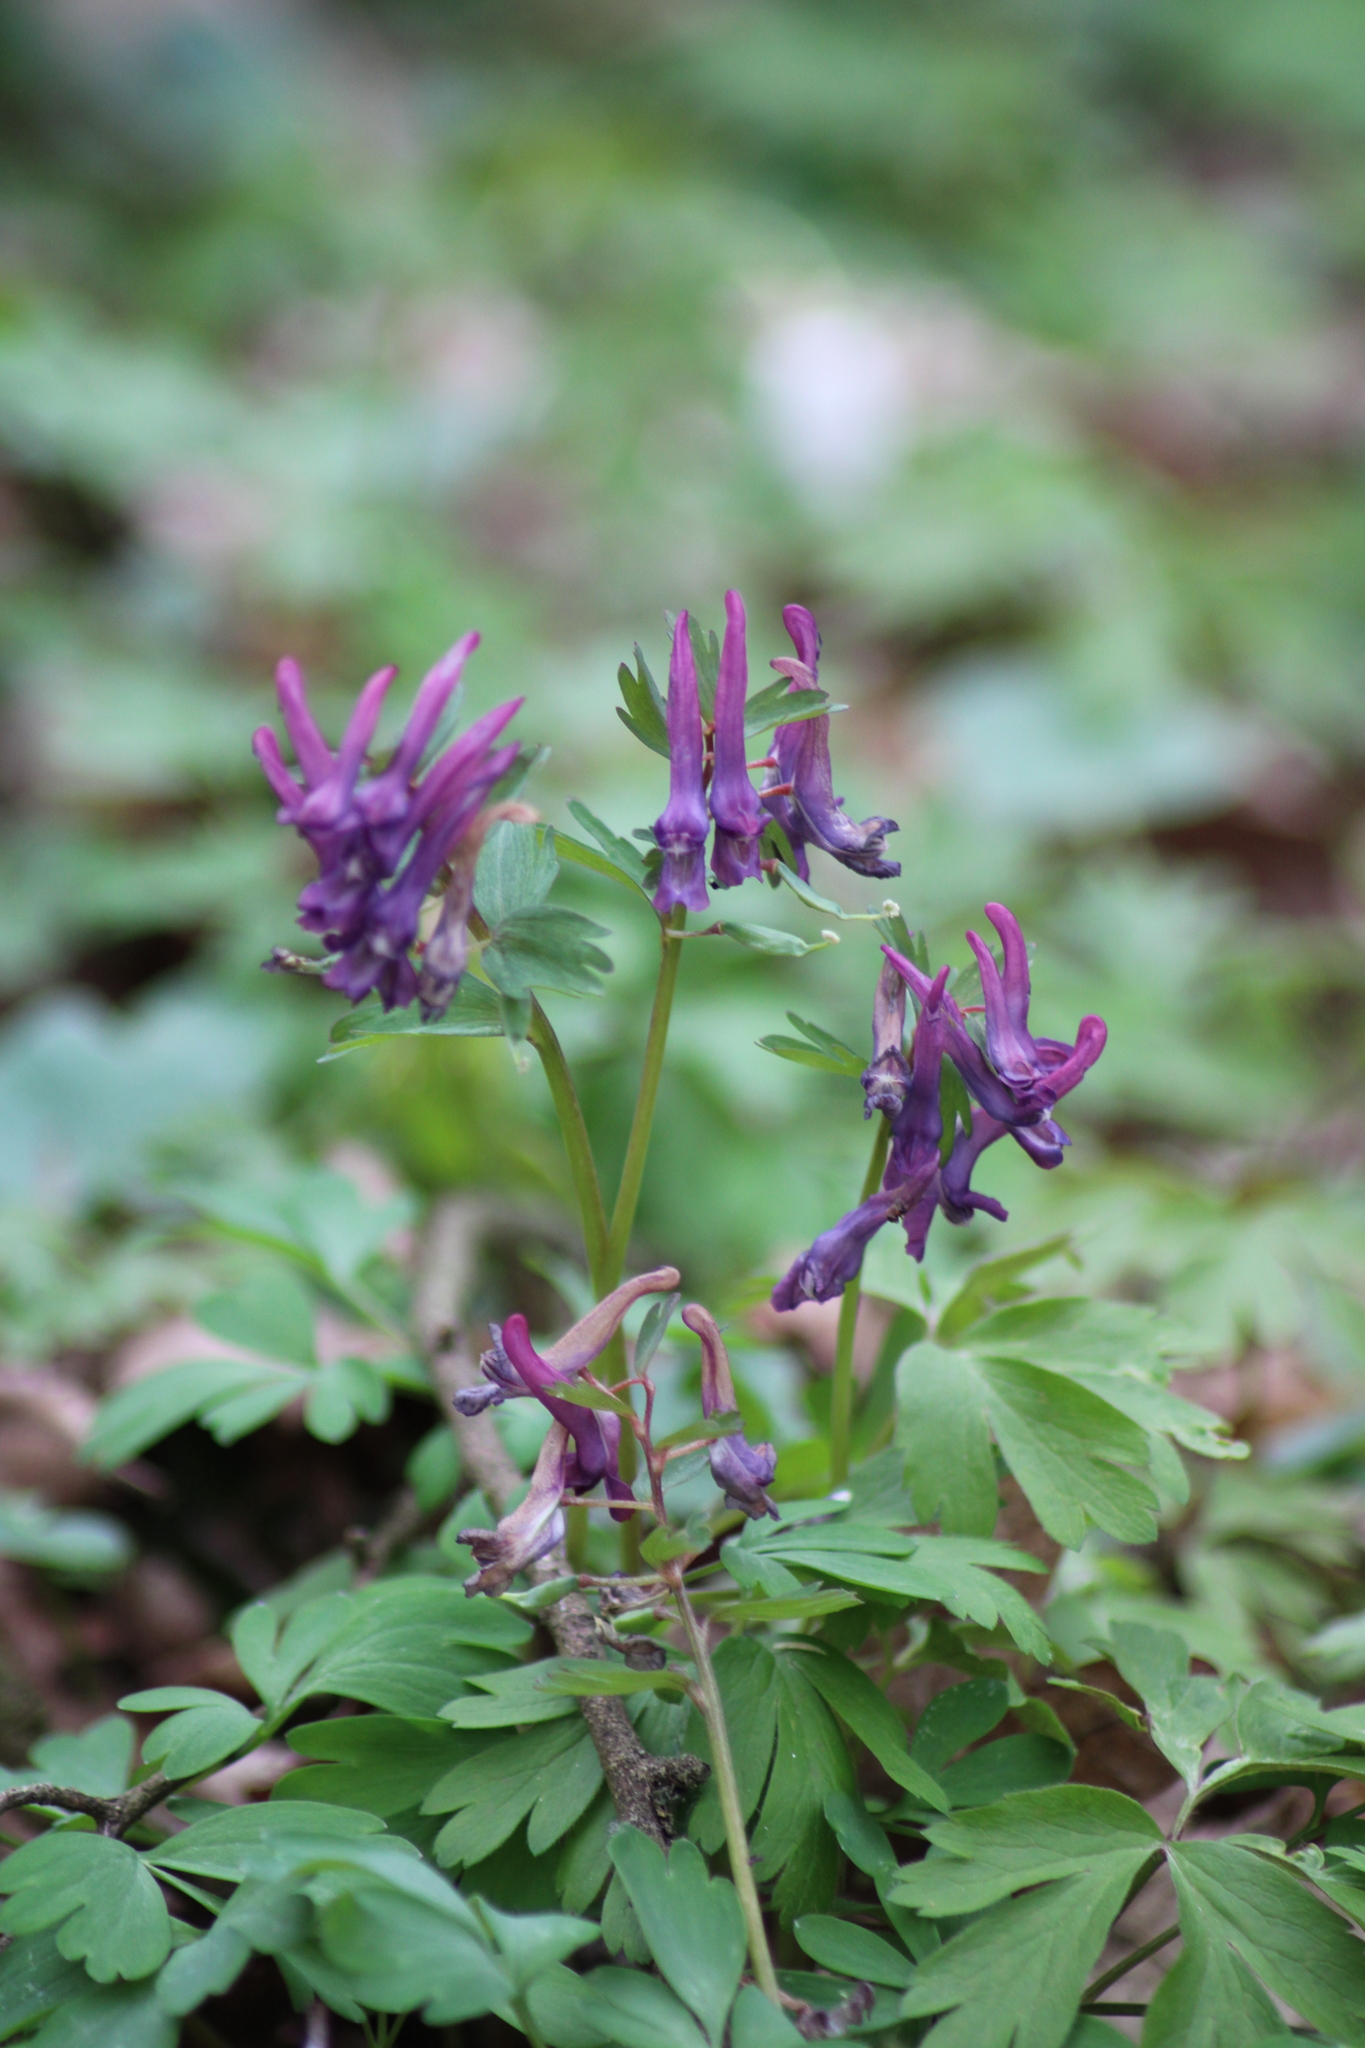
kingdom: Plantae
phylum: Tracheophyta
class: Magnoliopsida
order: Ranunculales
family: Papaveraceae
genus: Corydalis
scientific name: Corydalis solida
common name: Bird-in-a-bush
